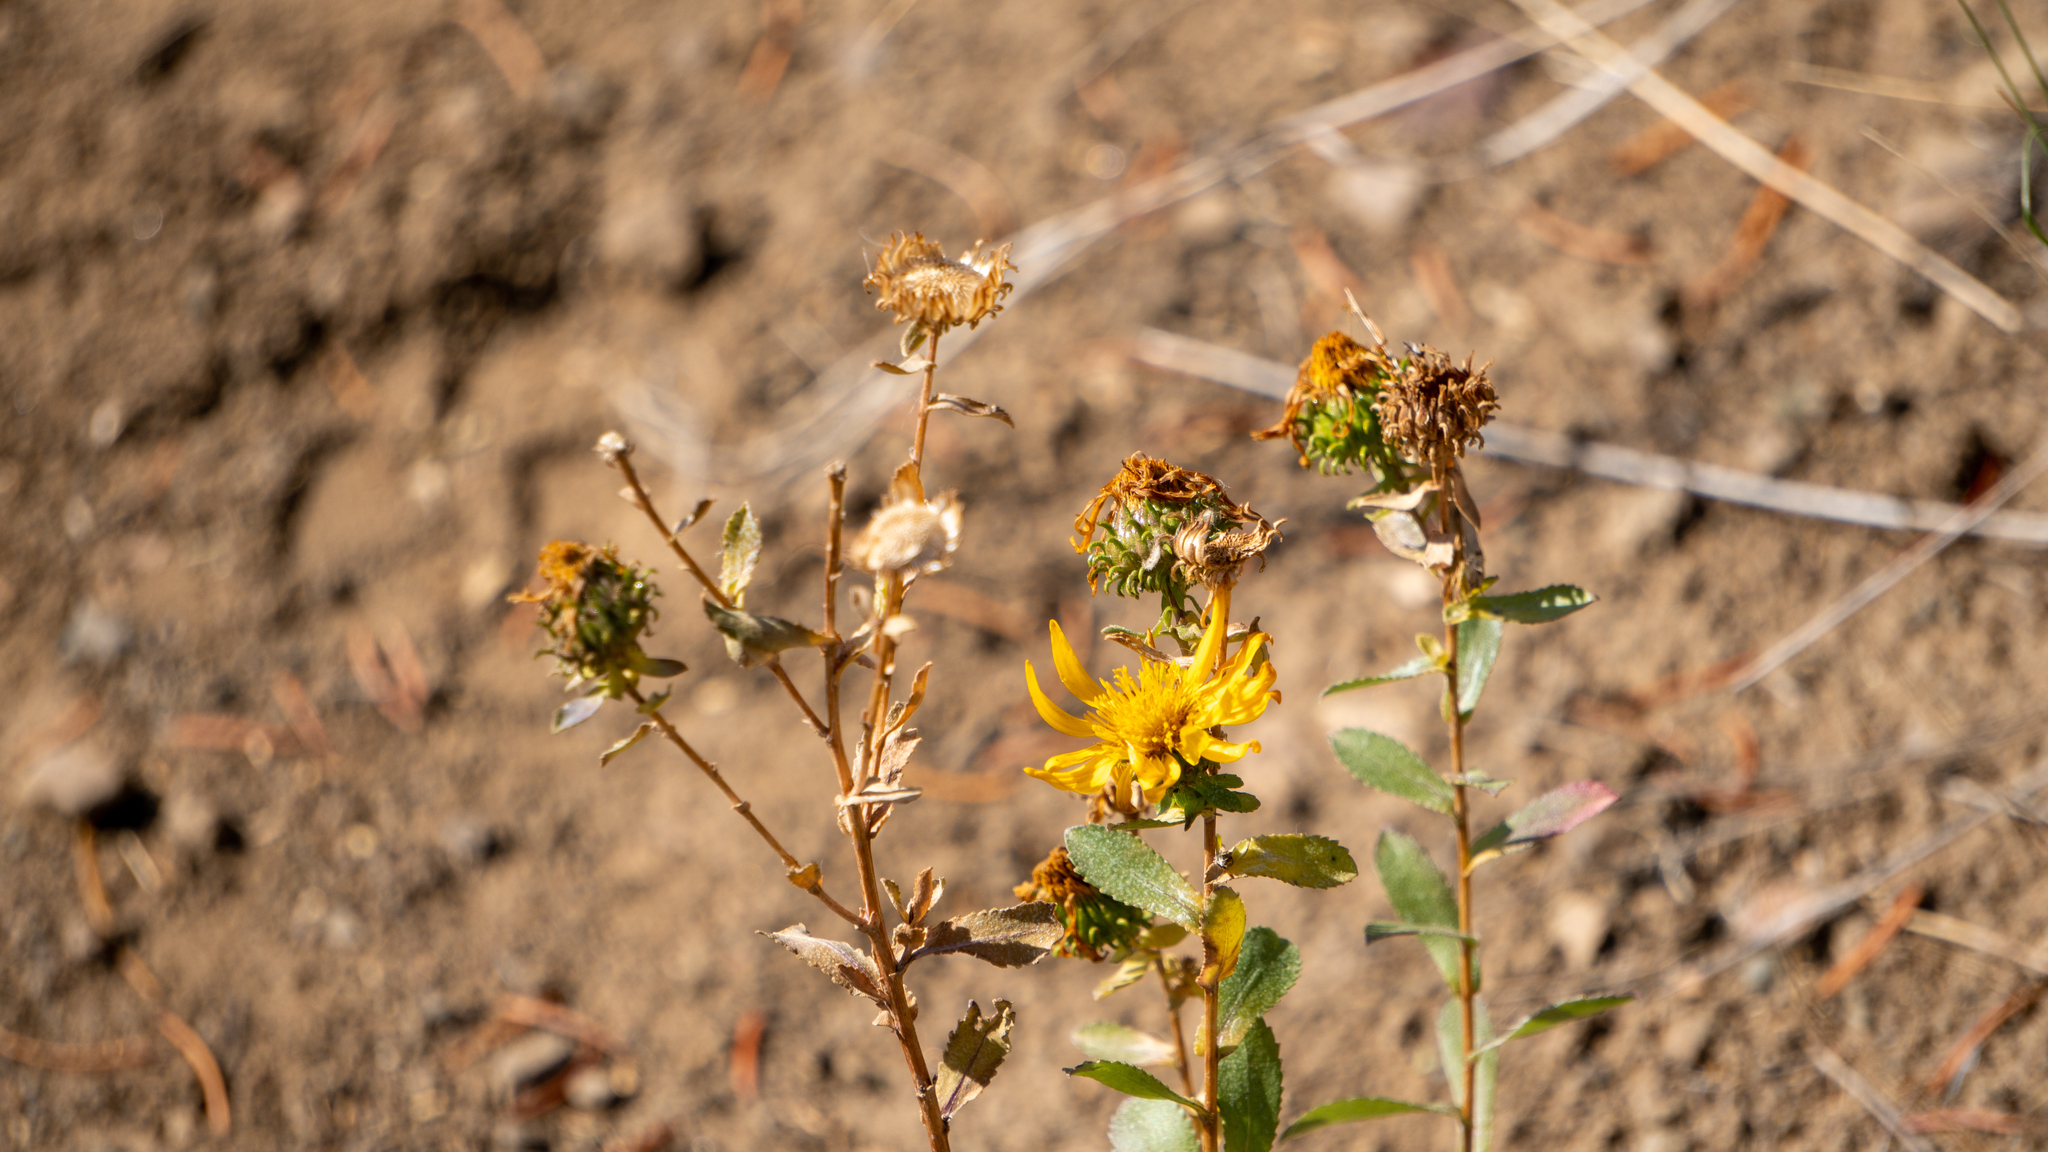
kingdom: Plantae
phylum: Tracheophyta
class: Magnoliopsida
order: Asterales
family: Asteraceae
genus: Grindelia
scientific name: Grindelia squarrosa
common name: Curly-cup gumweed
